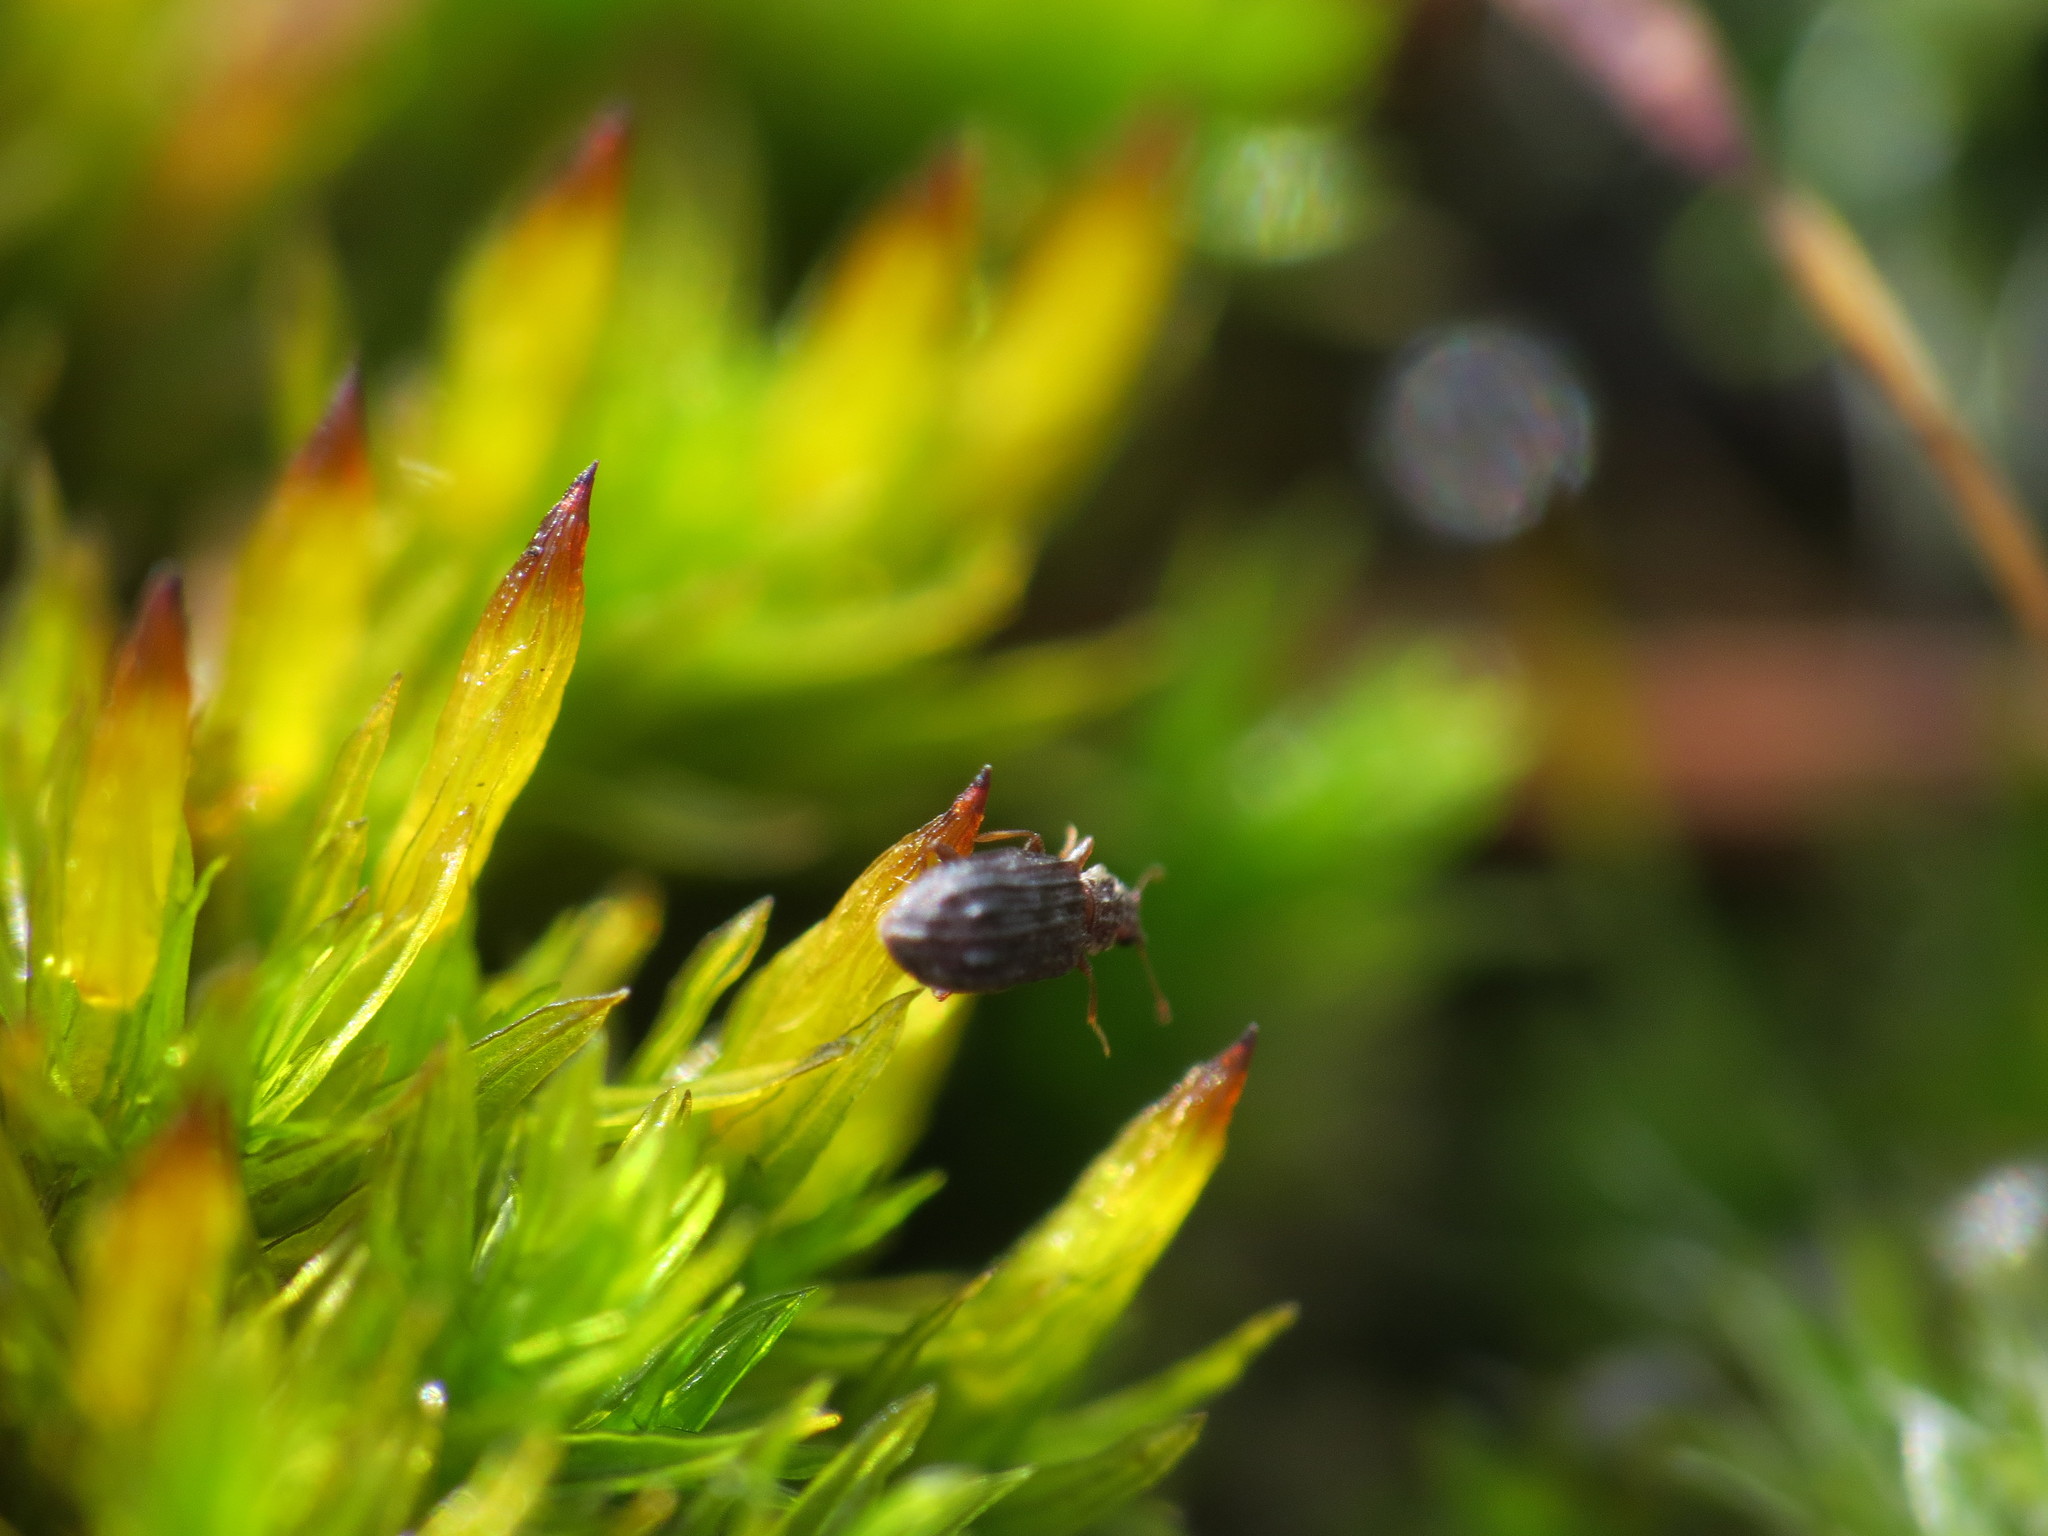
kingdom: Animalia
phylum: Arthropoda
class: Insecta
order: Coleoptera
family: Latridiidae
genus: Cartodere
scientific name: Cartodere nodifer
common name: Humpbacked minute scavenger beetle
